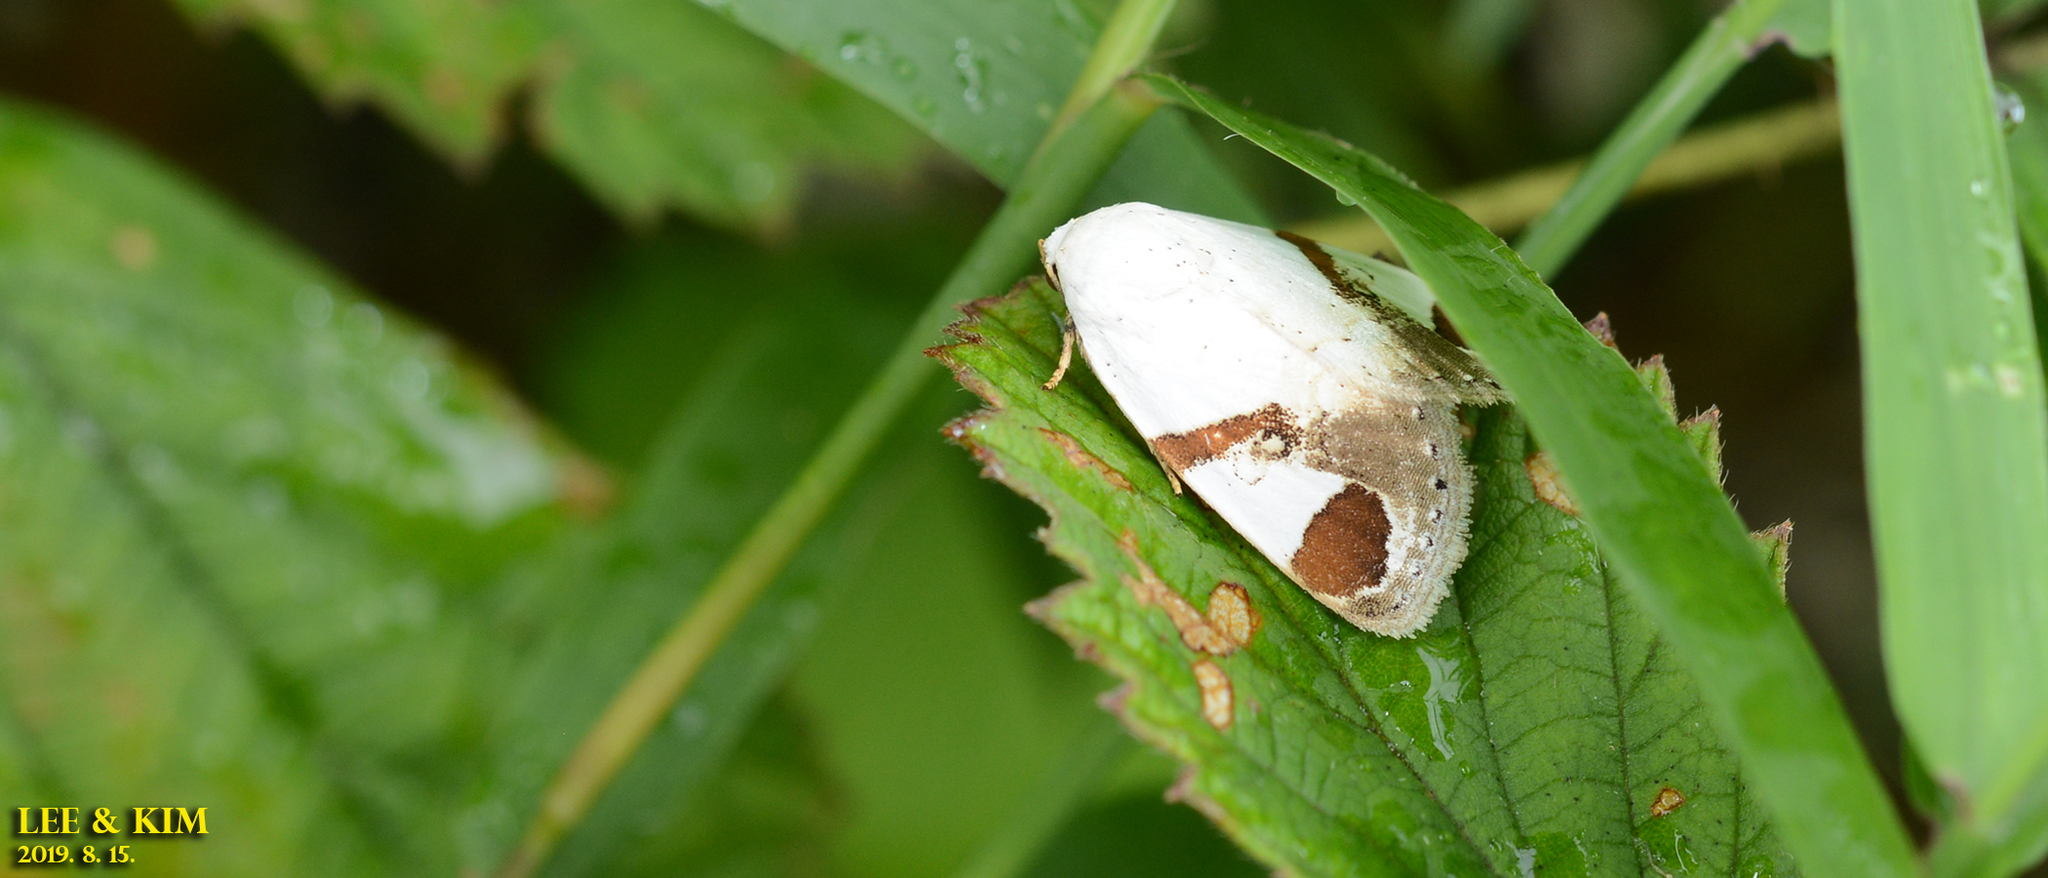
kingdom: Animalia
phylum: Arthropoda
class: Insecta
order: Lepidoptera
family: Noctuidae
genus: Sphragifera
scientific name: Sphragifera biplaga
